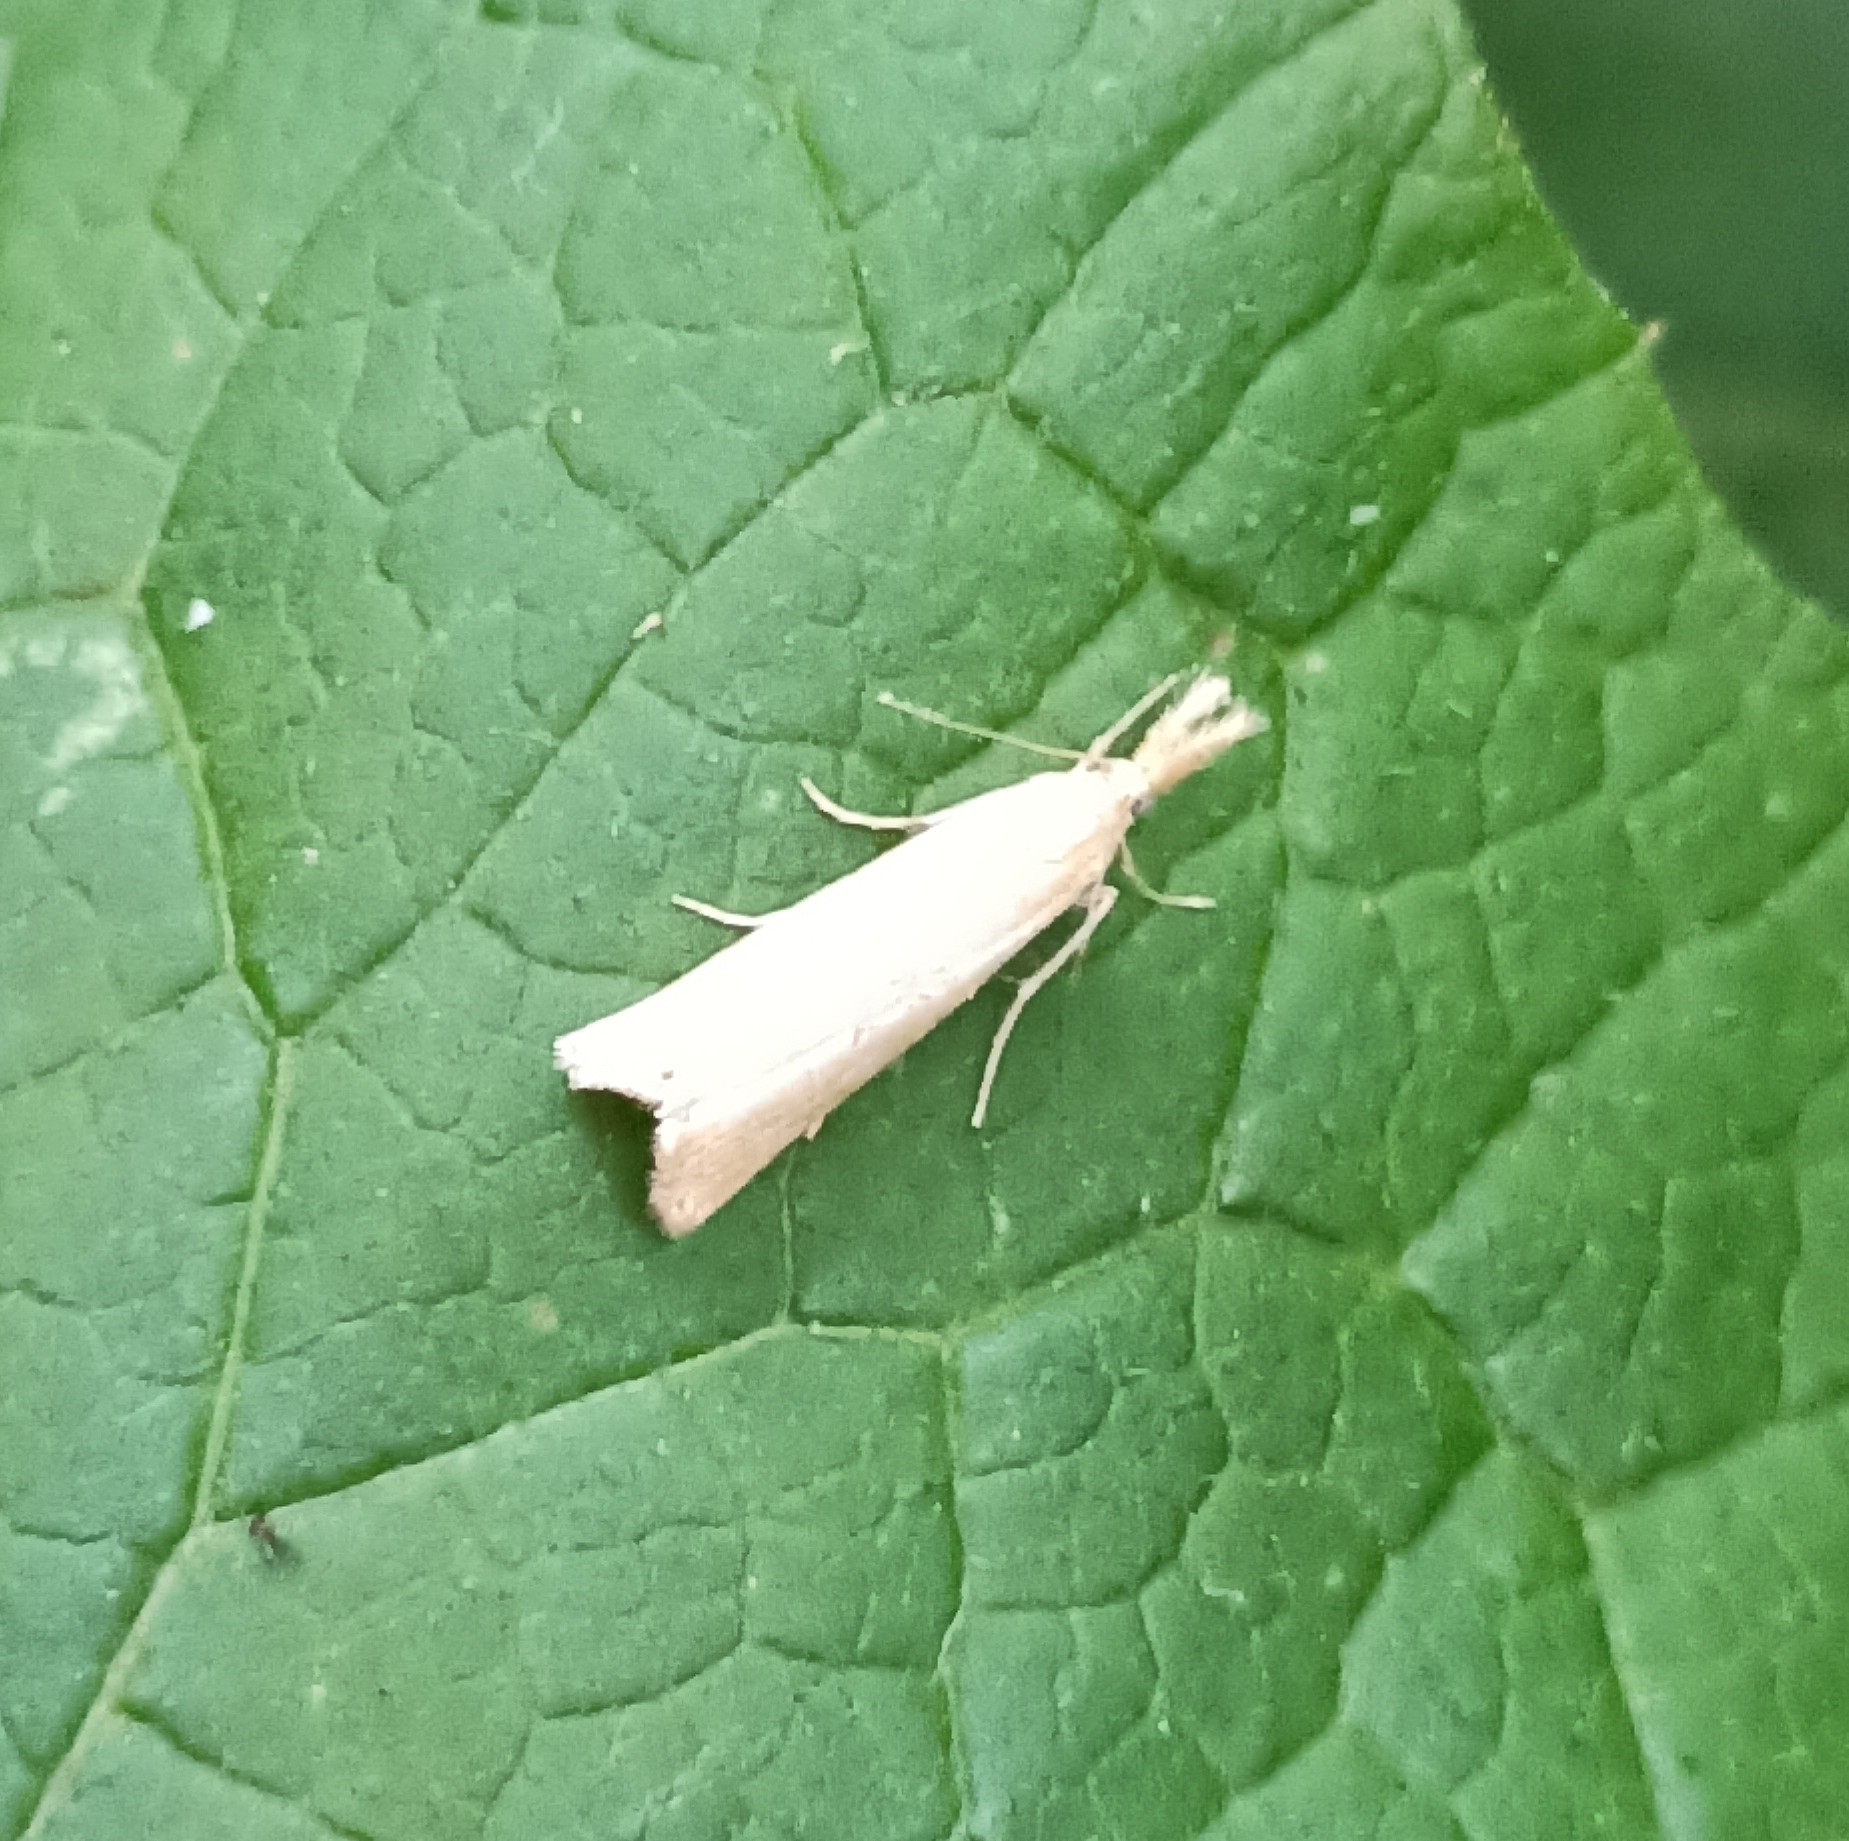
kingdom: Animalia
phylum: Arthropoda
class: Insecta
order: Lepidoptera
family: Crambidae
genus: Agriphila
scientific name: Agriphila straminella
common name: Straw grass-veneer
